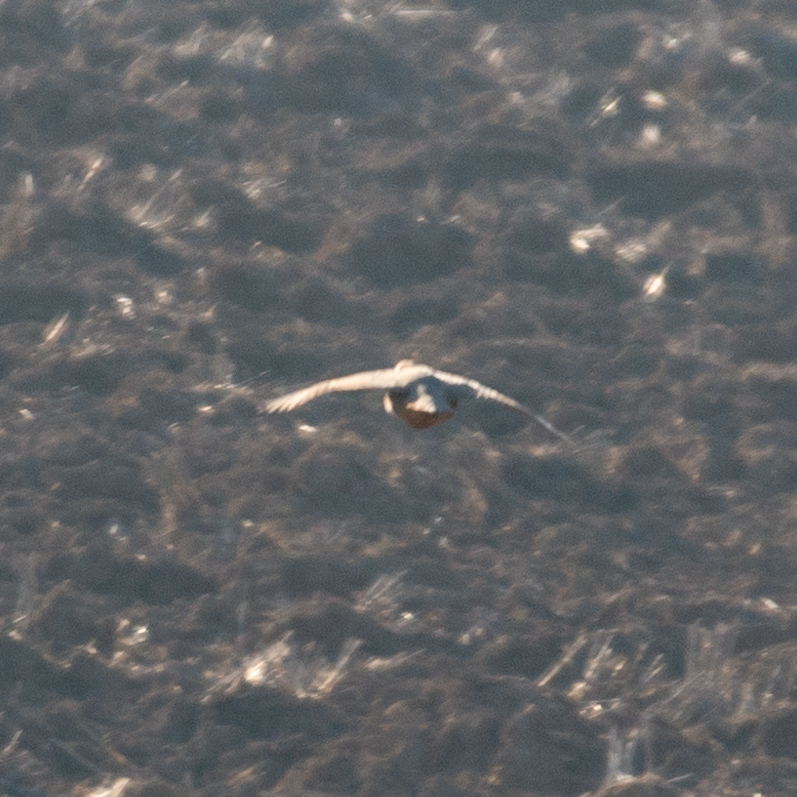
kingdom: Animalia
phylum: Chordata
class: Aves
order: Galliformes
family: Phasianidae
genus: Alectoris
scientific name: Alectoris rufa
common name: Red-legged partridge
